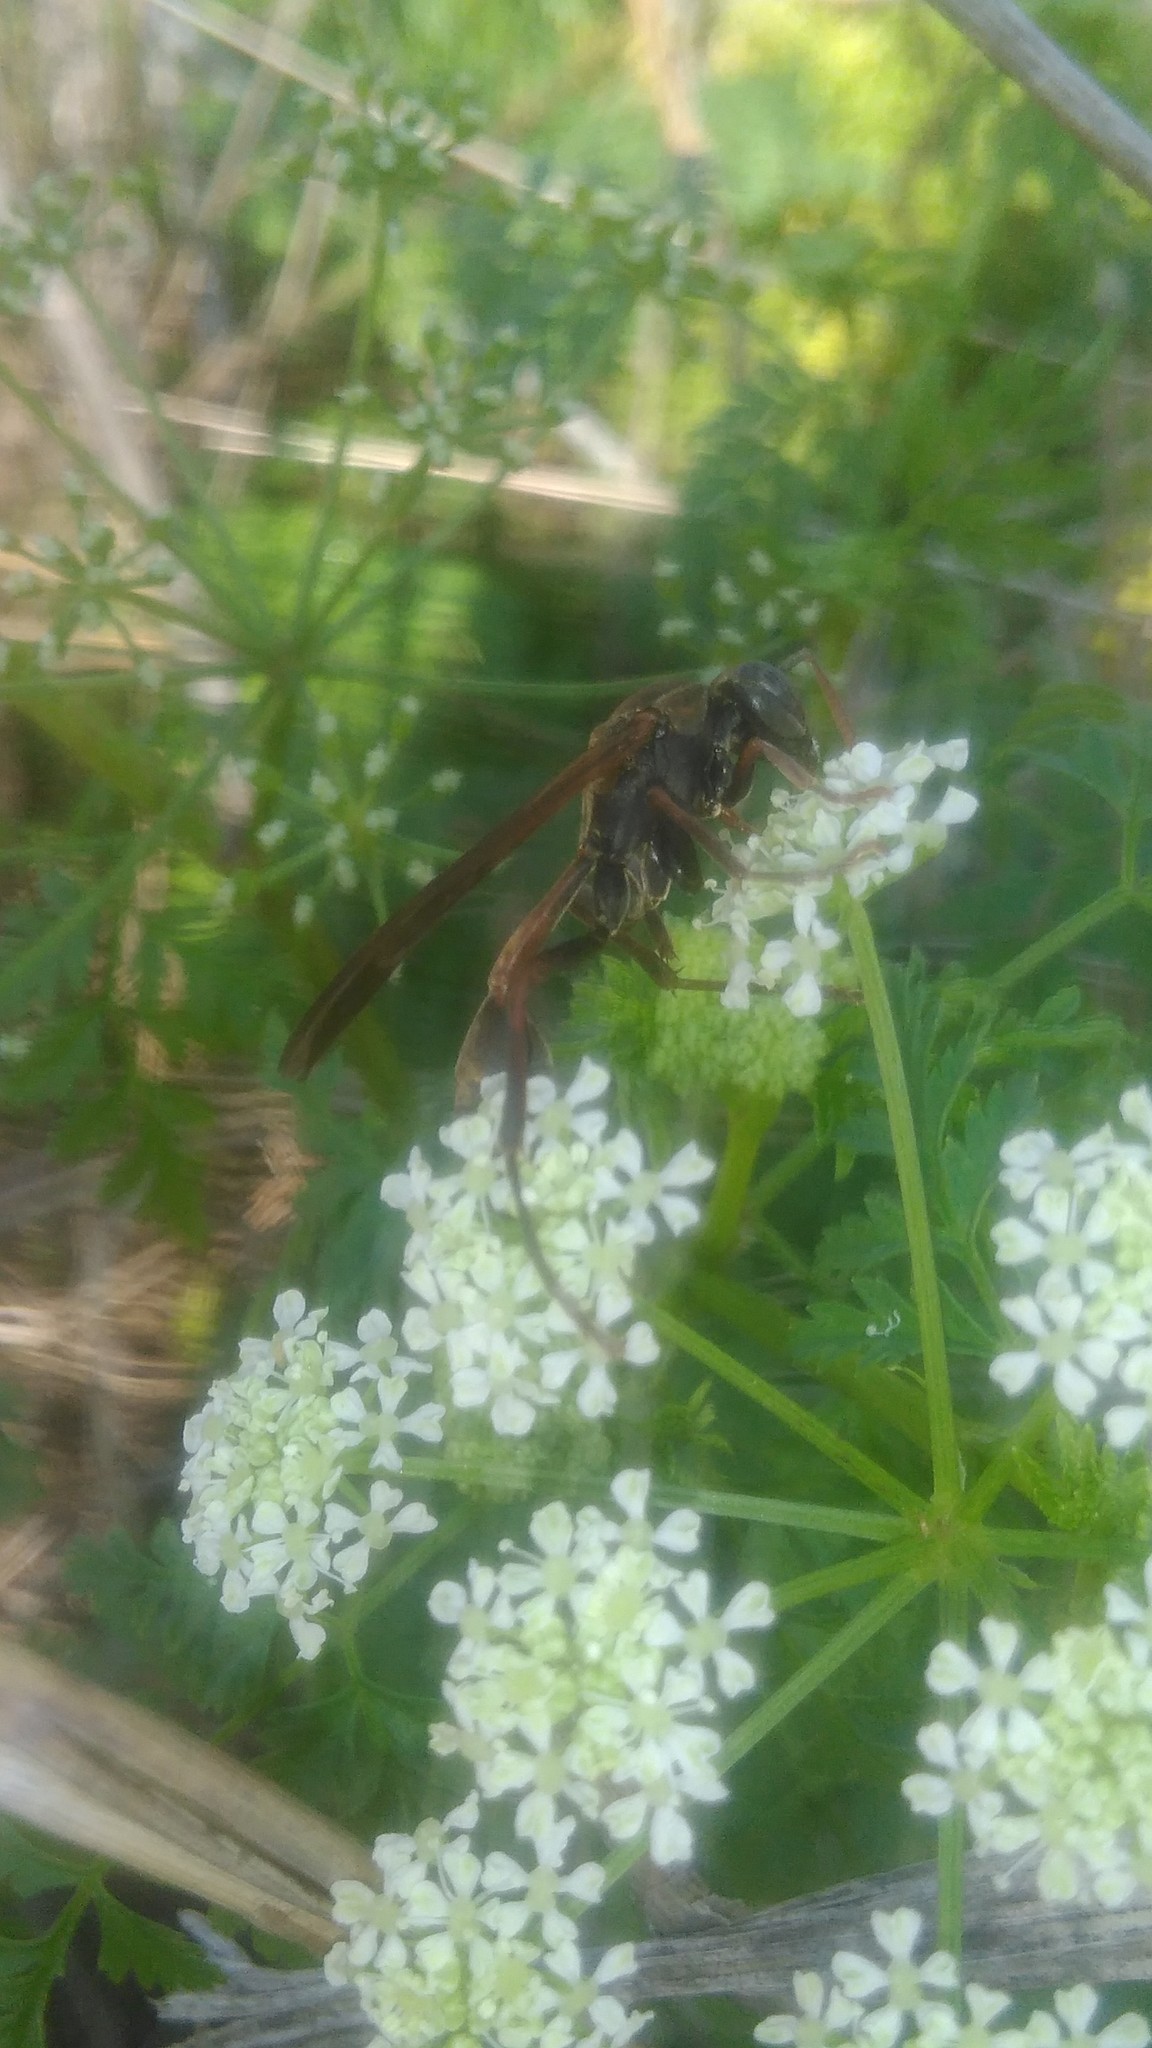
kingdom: Animalia
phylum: Arthropoda
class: Insecta
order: Hymenoptera
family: Vespidae
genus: Mischocyttarus
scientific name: Mischocyttarus drewseni
